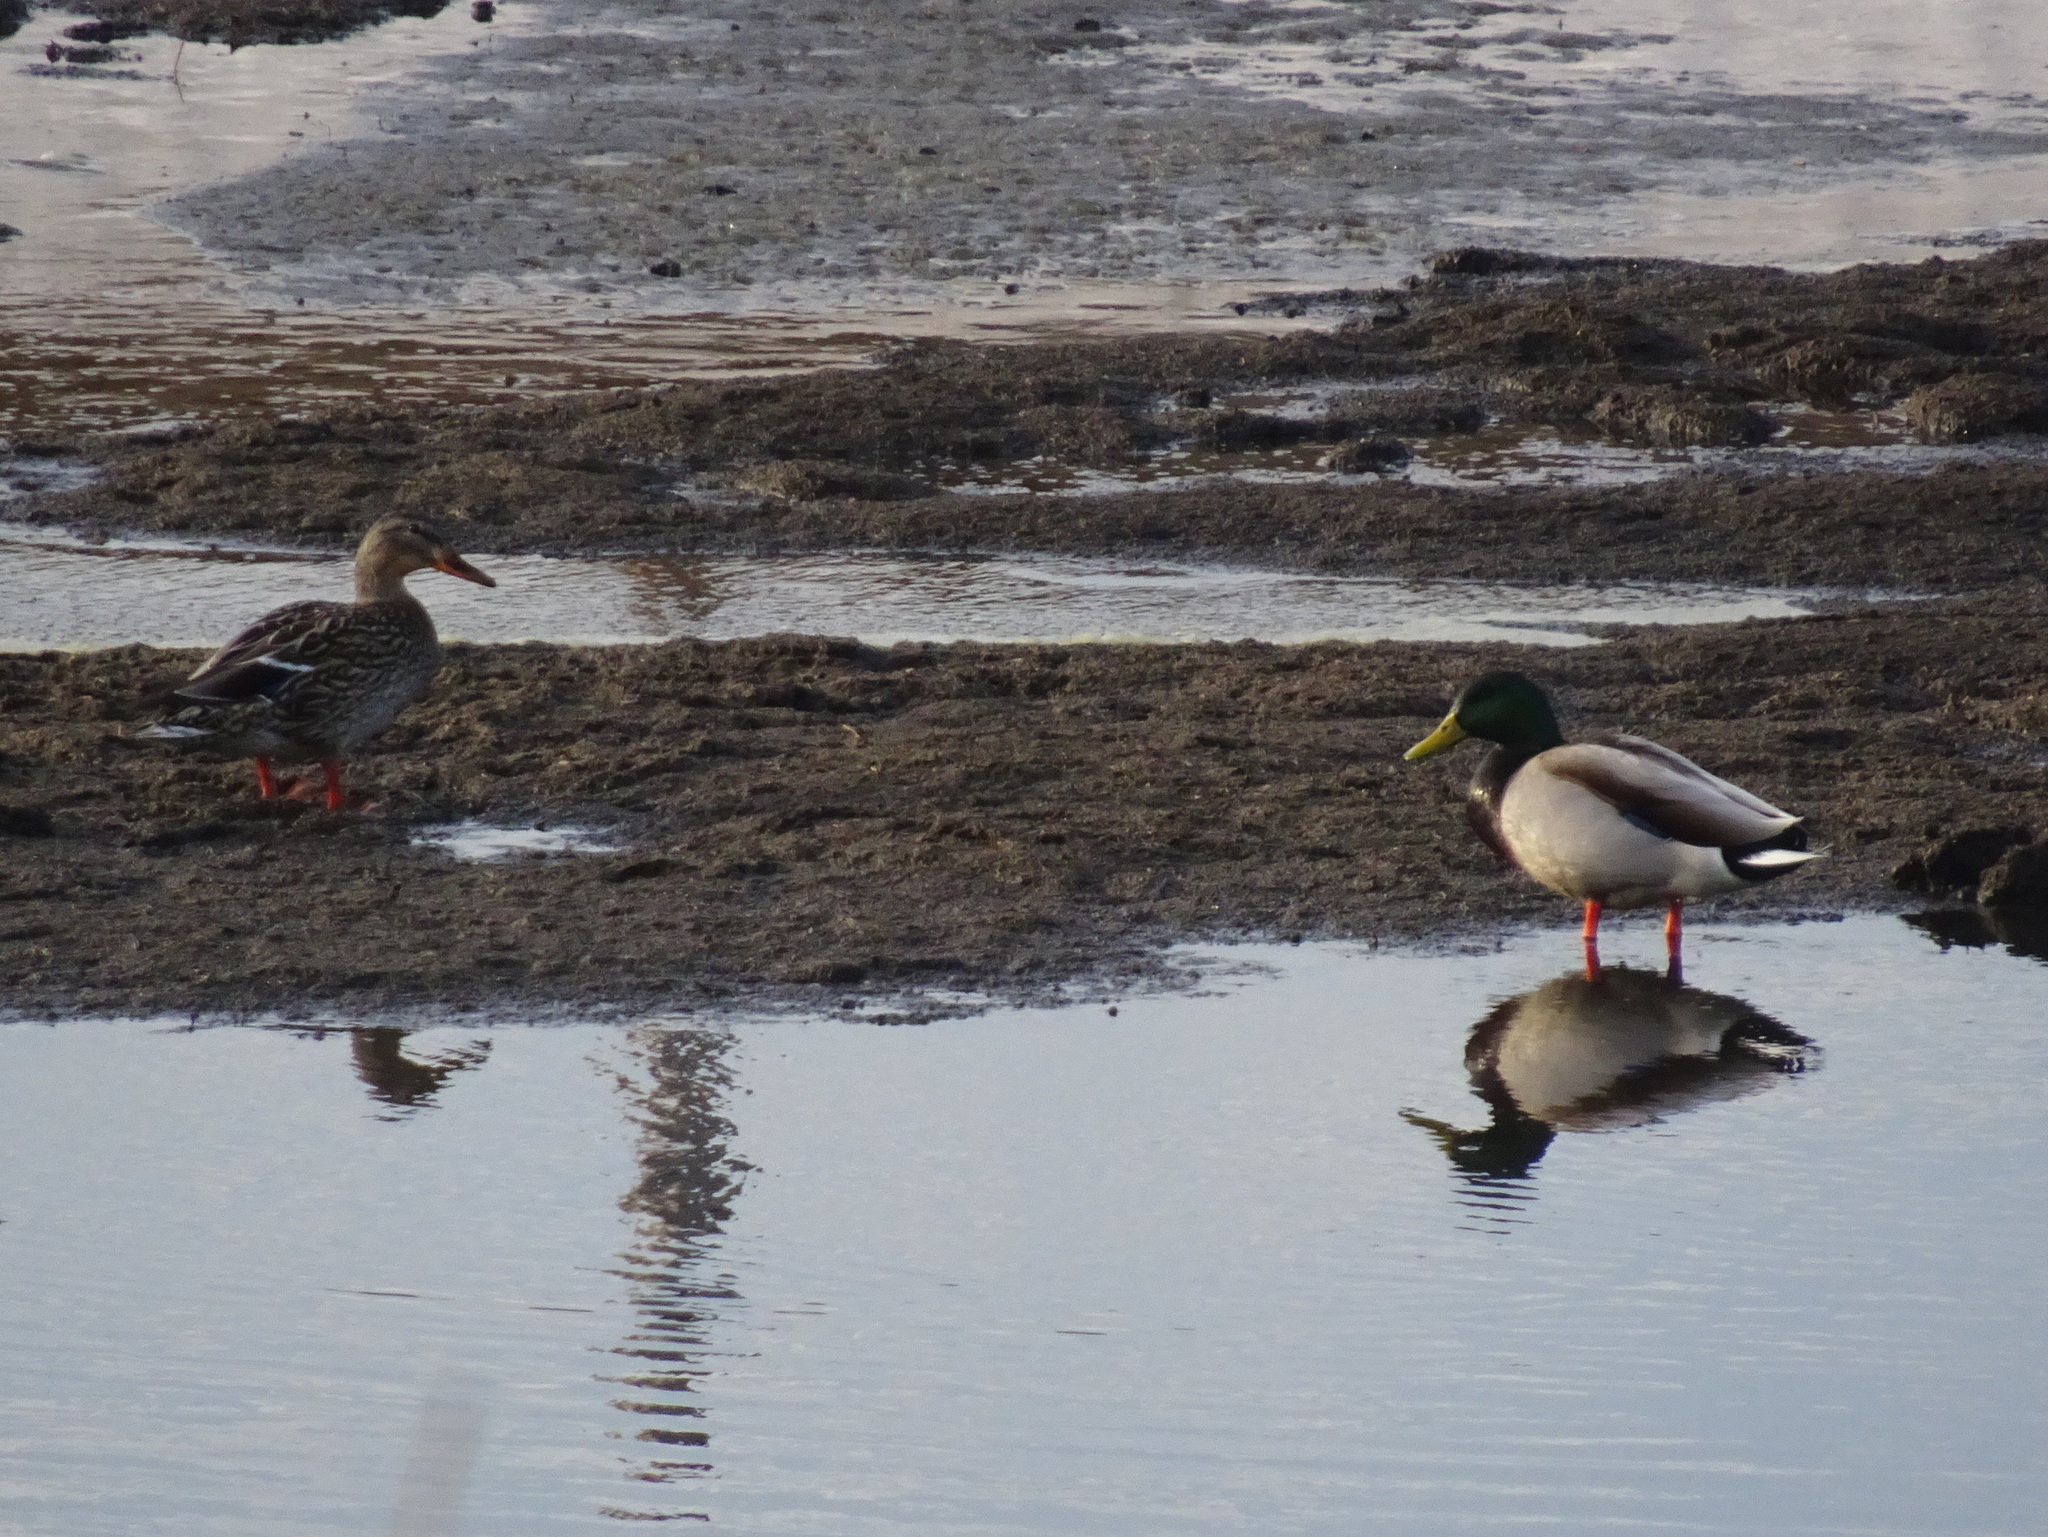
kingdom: Animalia
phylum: Chordata
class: Aves
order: Anseriformes
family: Anatidae
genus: Anas
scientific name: Anas platyrhynchos
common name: Mallard
